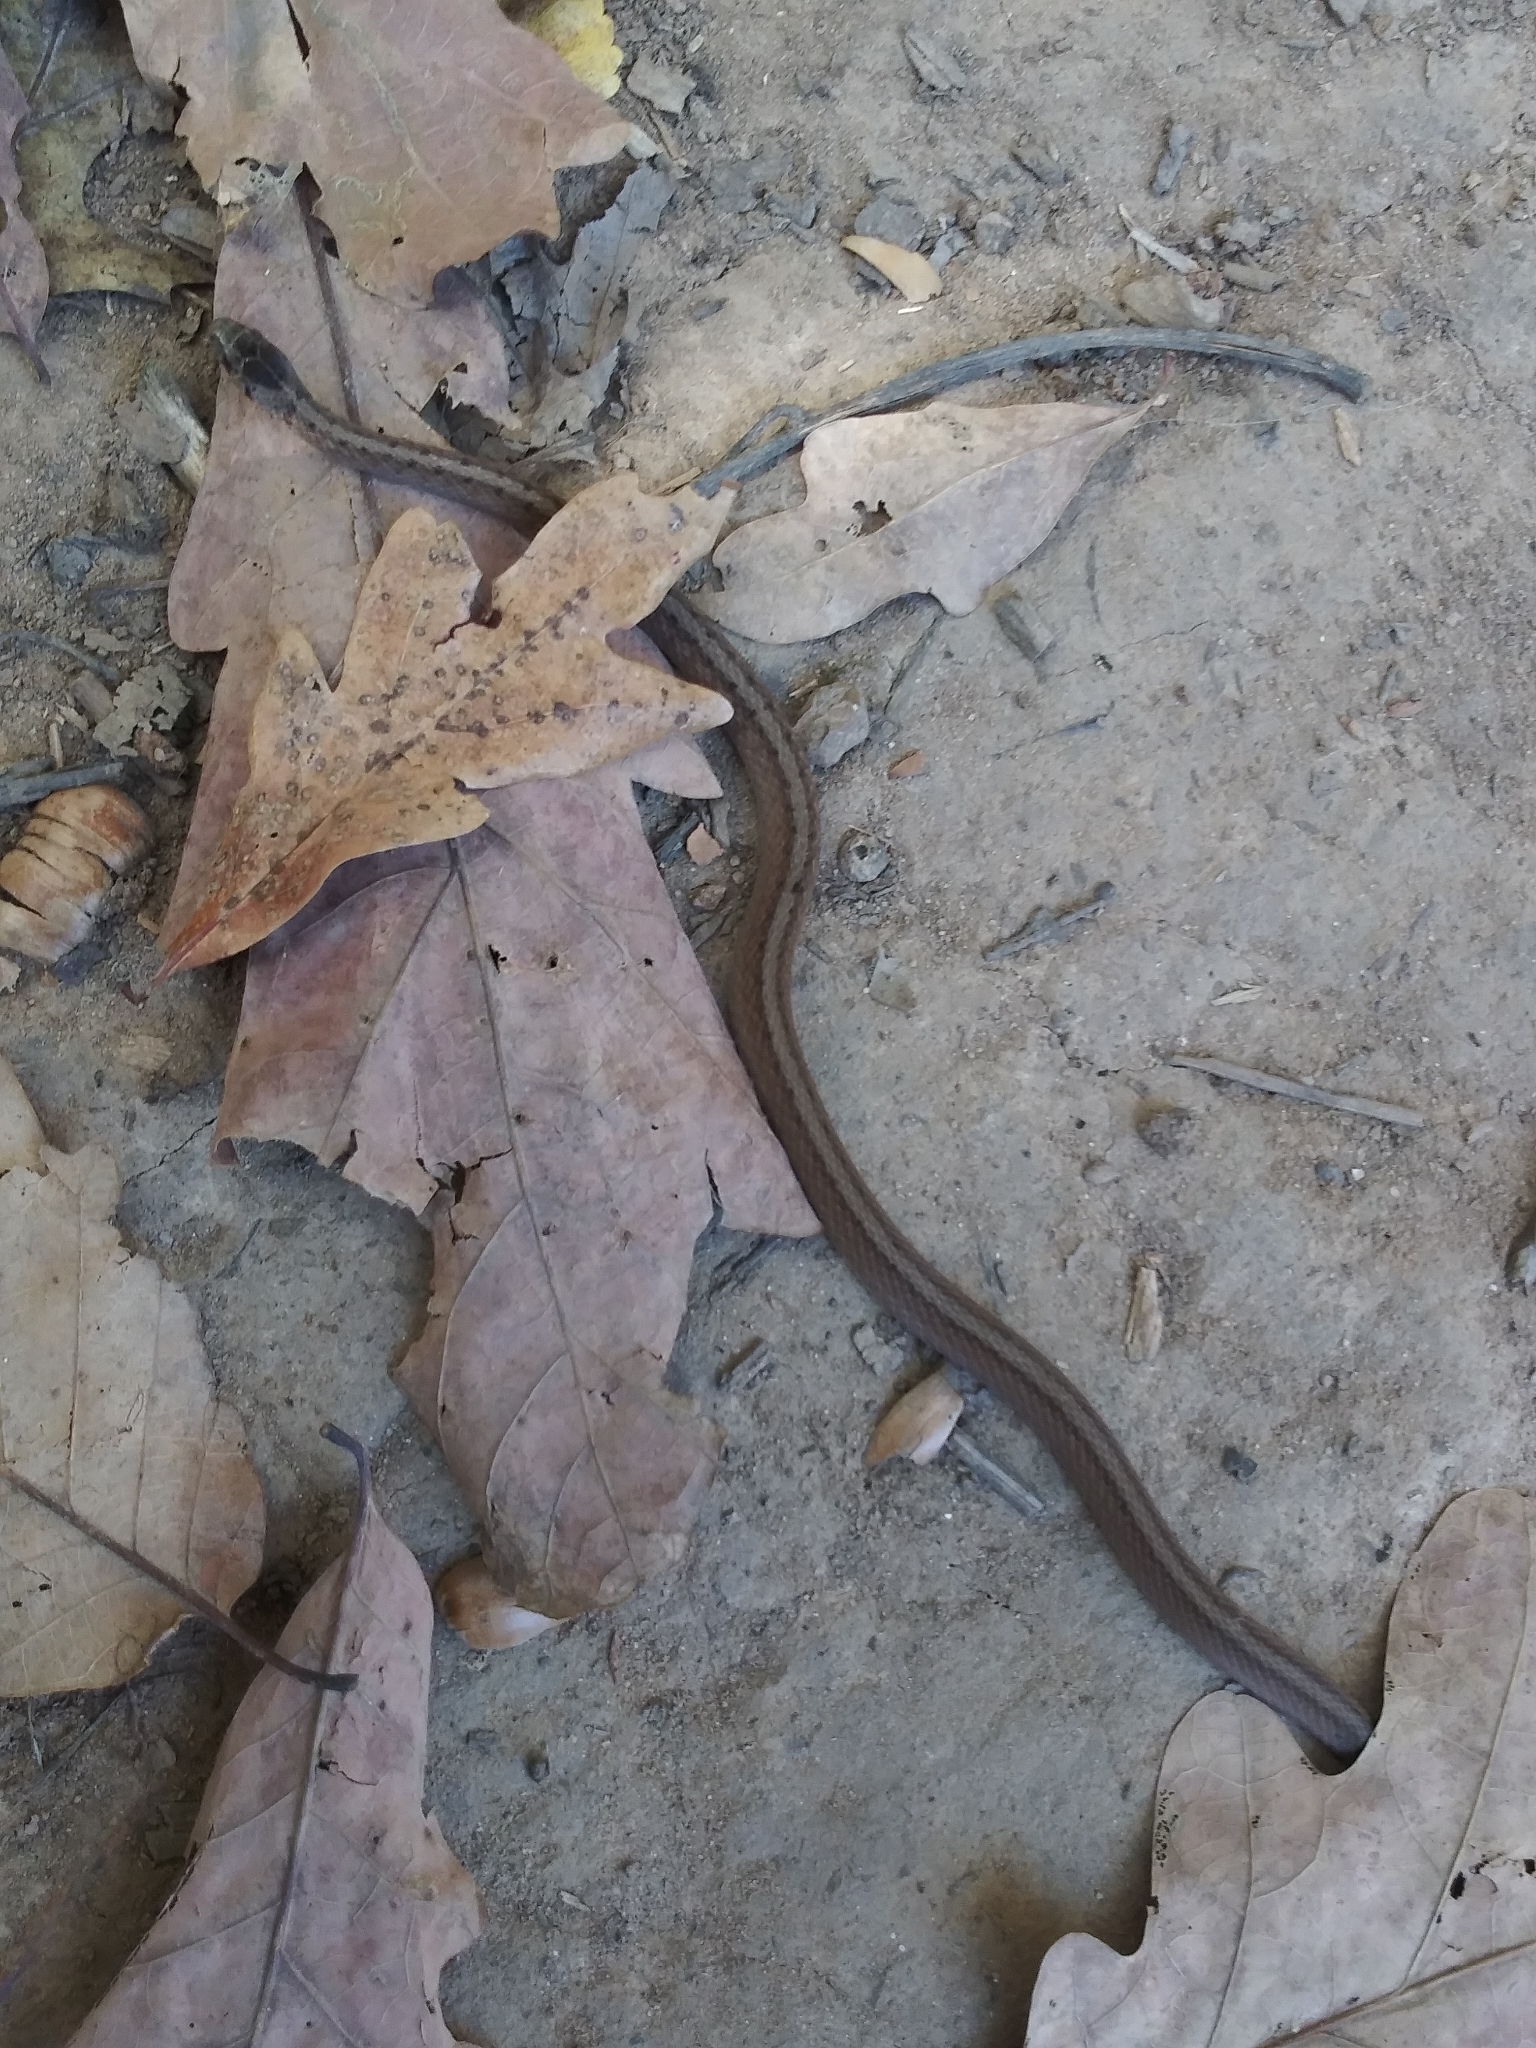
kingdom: Animalia
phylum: Chordata
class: Squamata
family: Colubridae
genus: Storeria
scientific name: Storeria dekayi
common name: (dekay’s) brown snake
